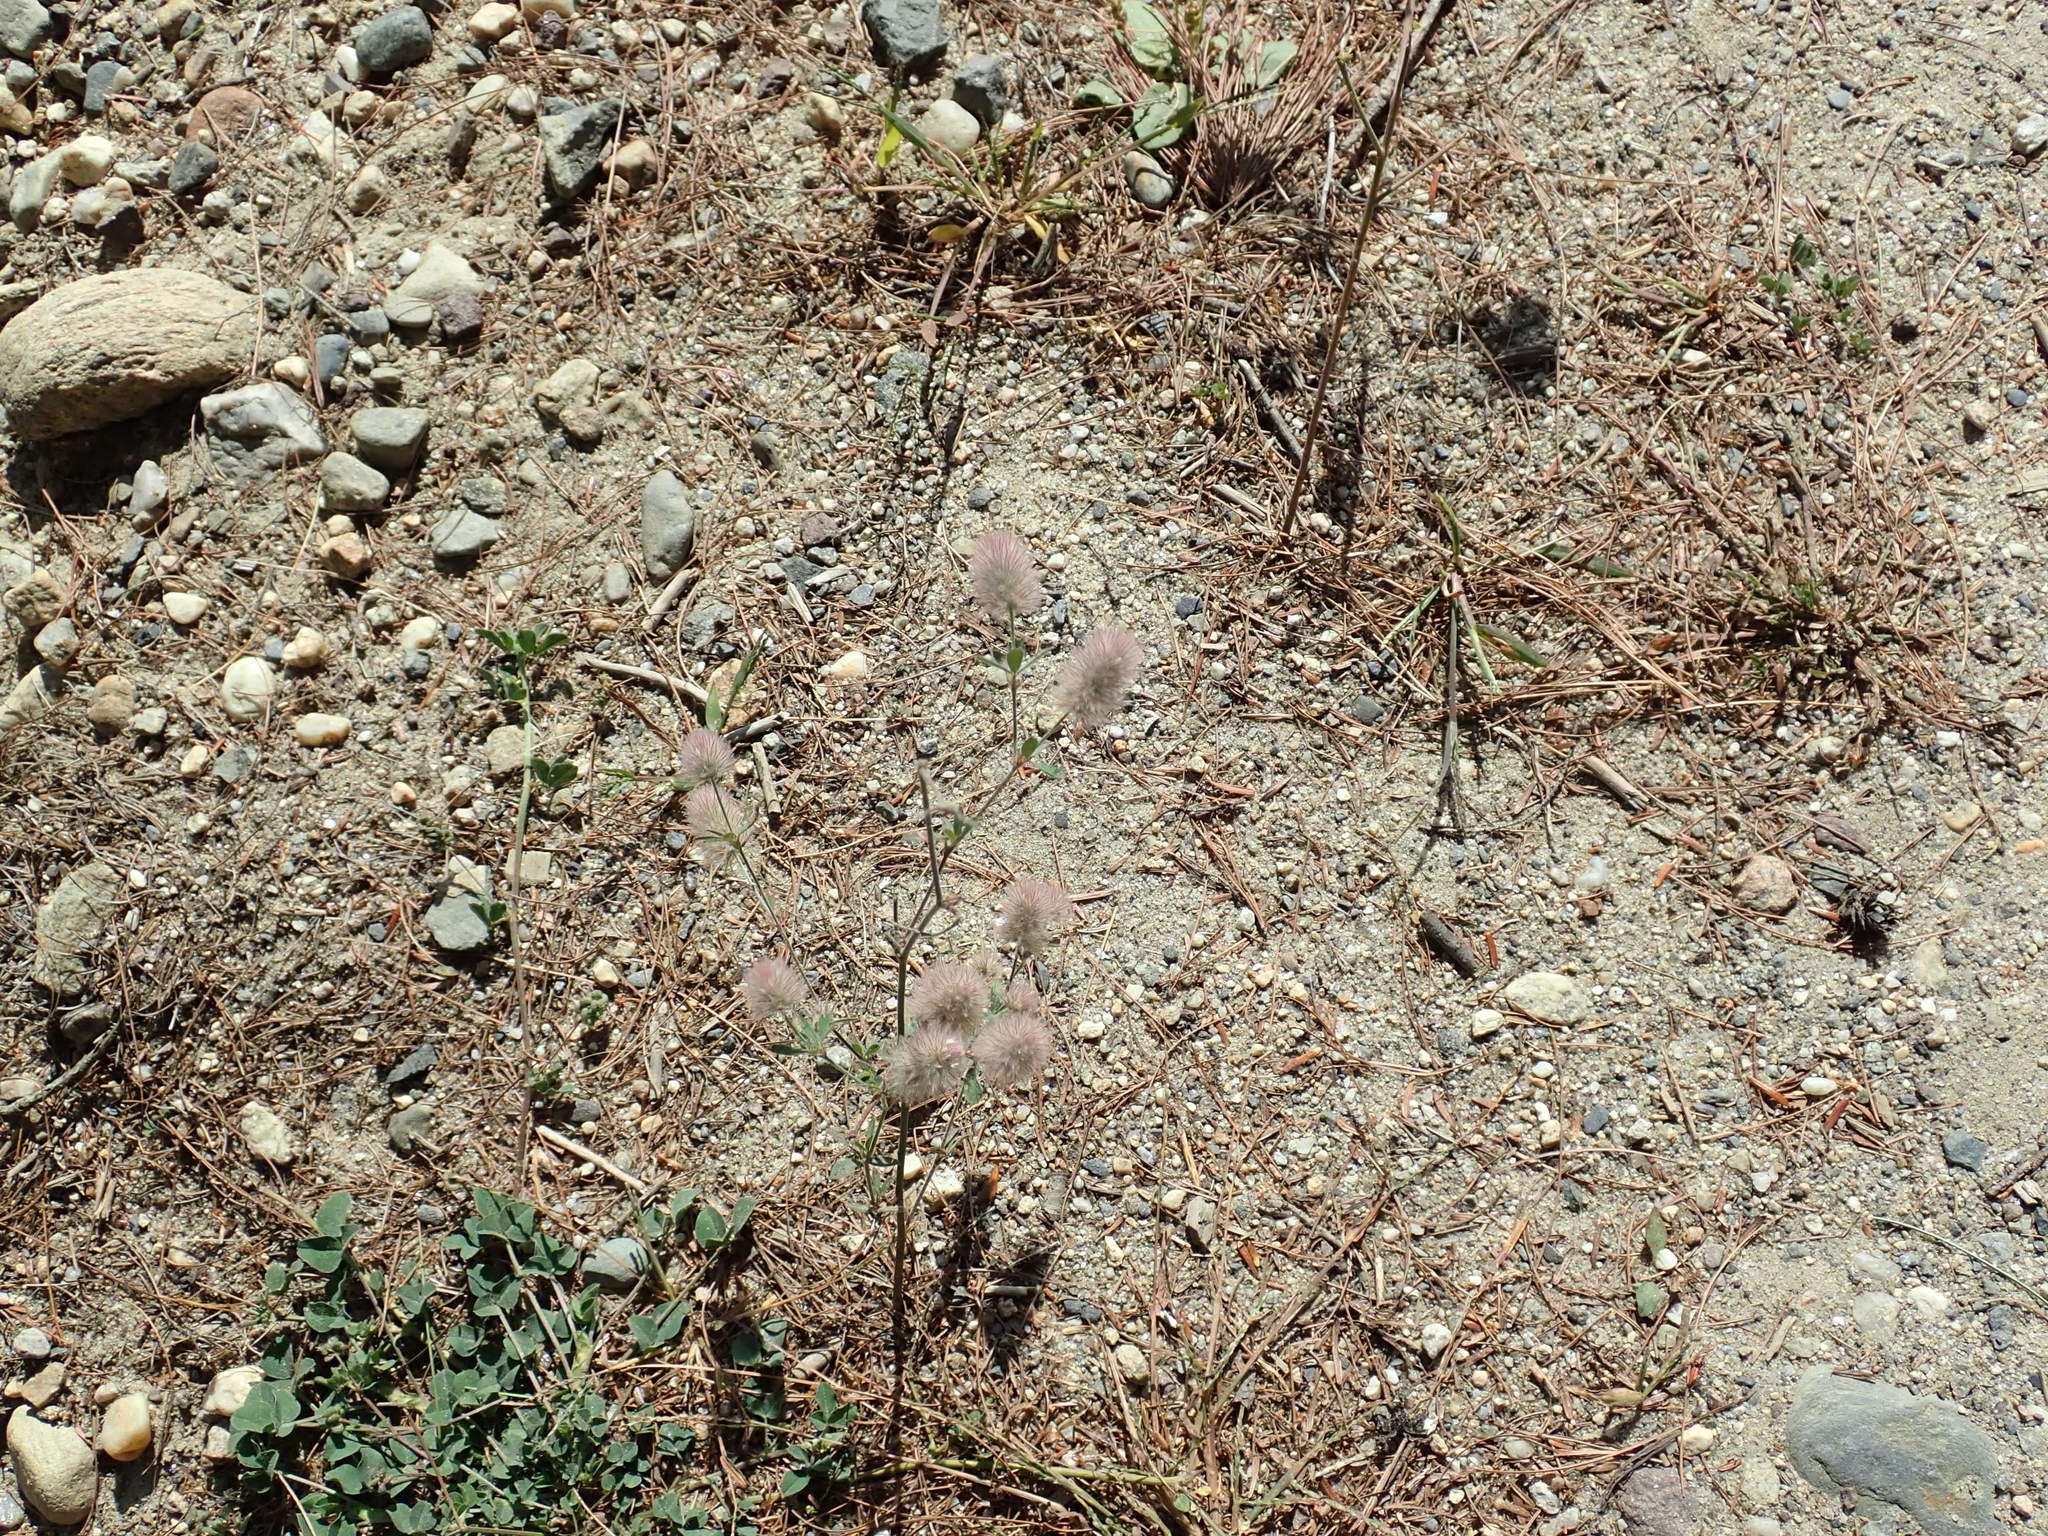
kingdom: Plantae
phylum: Tracheophyta
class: Magnoliopsida
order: Fabales
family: Fabaceae
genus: Trifolium
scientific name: Trifolium arvense
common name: Hare's-foot clover
